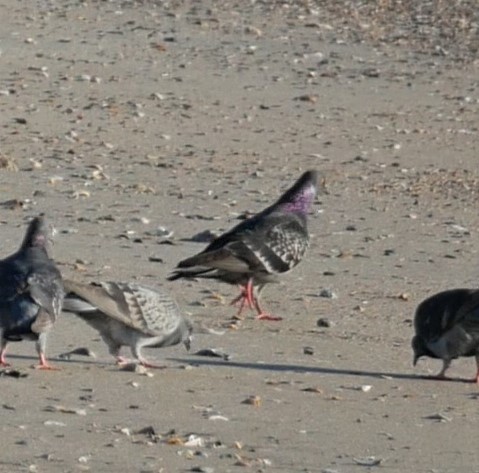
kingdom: Animalia
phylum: Chordata
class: Aves
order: Columbiformes
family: Columbidae
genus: Columba
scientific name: Columba livia
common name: Rock pigeon
